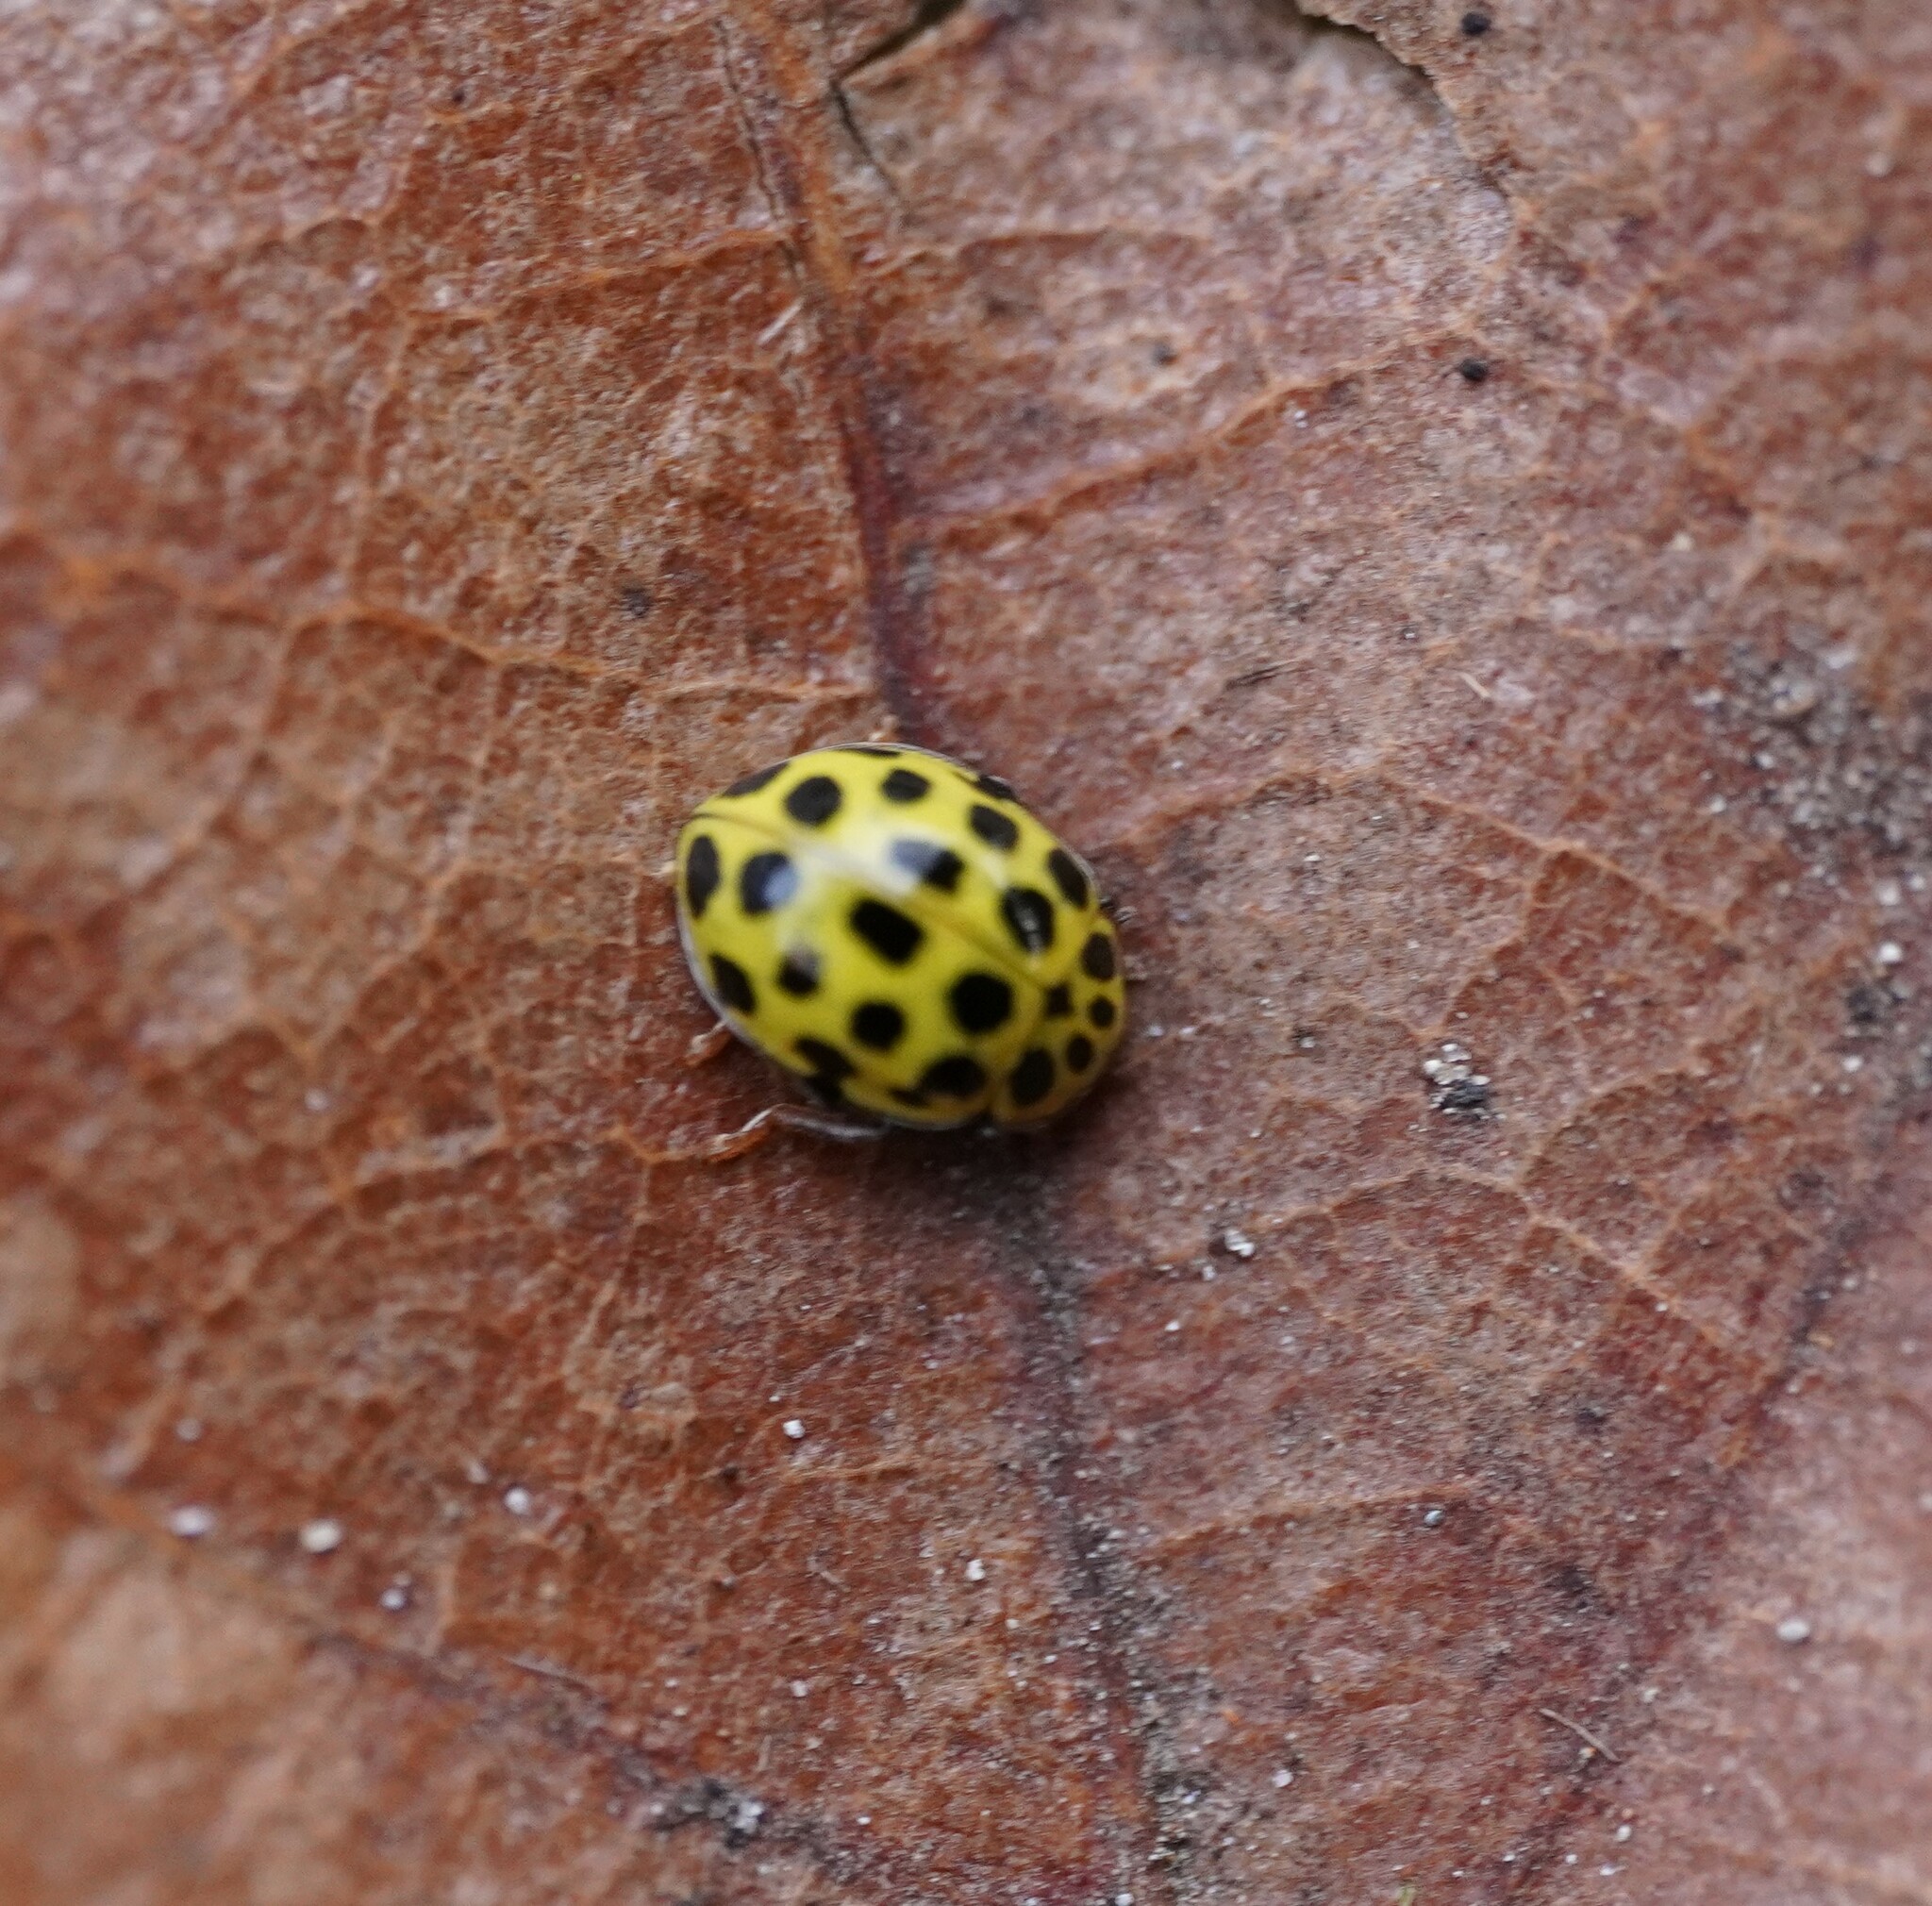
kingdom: Animalia
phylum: Arthropoda
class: Insecta
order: Coleoptera
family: Coccinellidae
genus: Psyllobora
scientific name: Psyllobora vigintiduopunctata
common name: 22-spot ladybird
